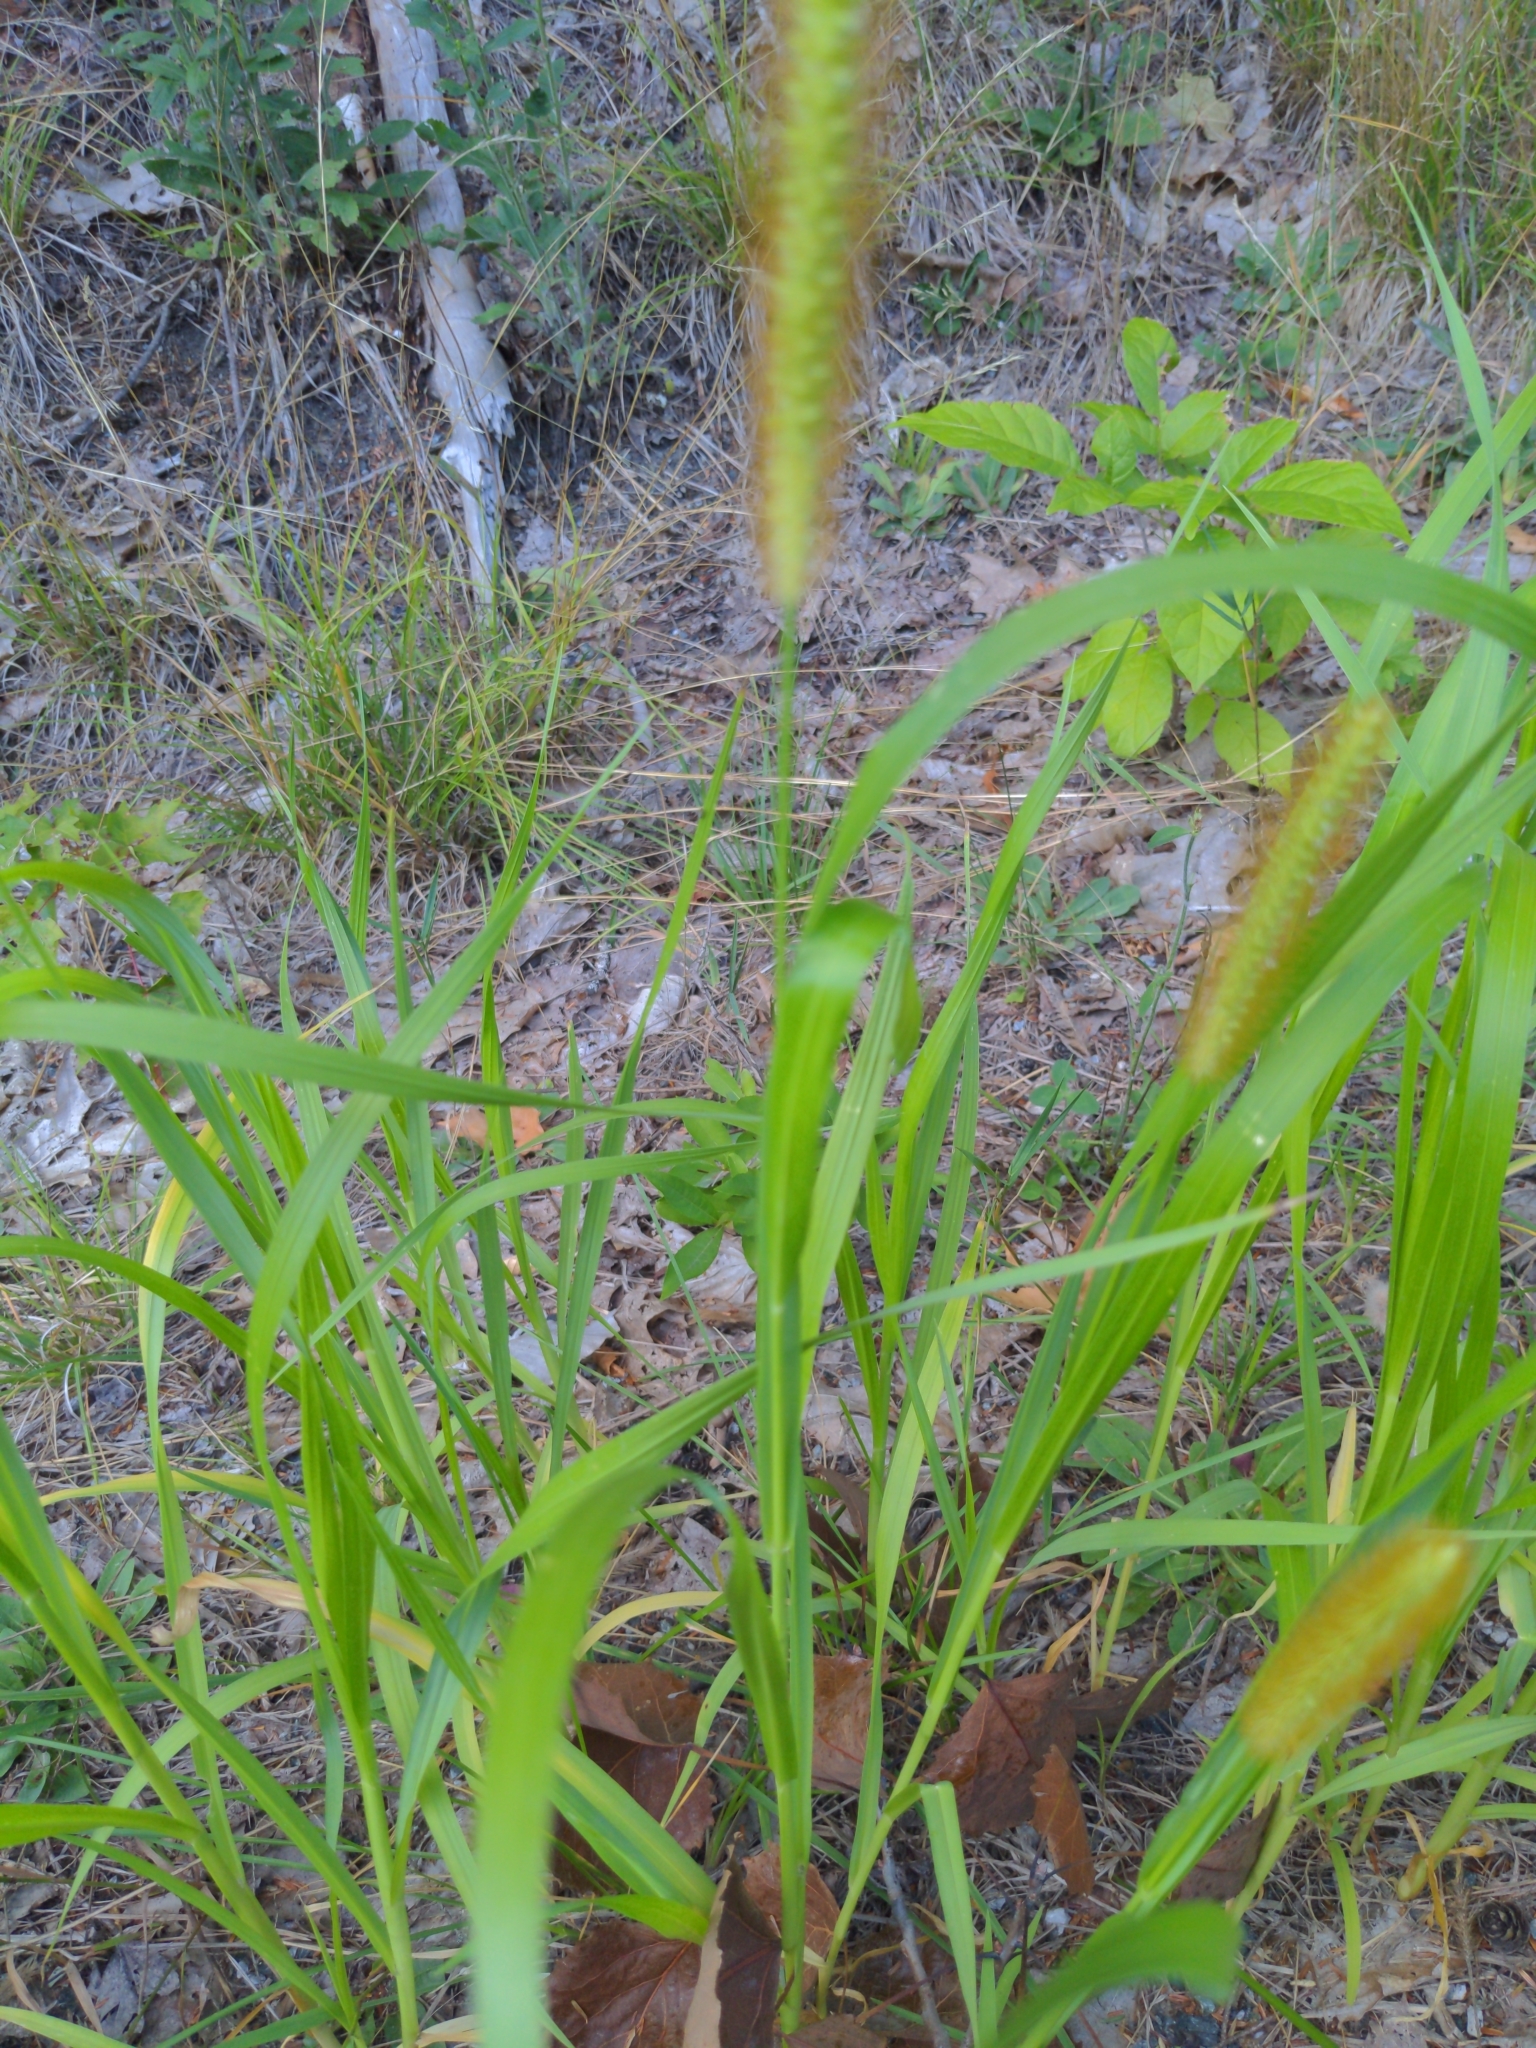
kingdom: Plantae
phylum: Tracheophyta
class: Liliopsida
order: Poales
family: Poaceae
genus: Setaria
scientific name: Setaria pumila
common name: Yellow bristle-grass
